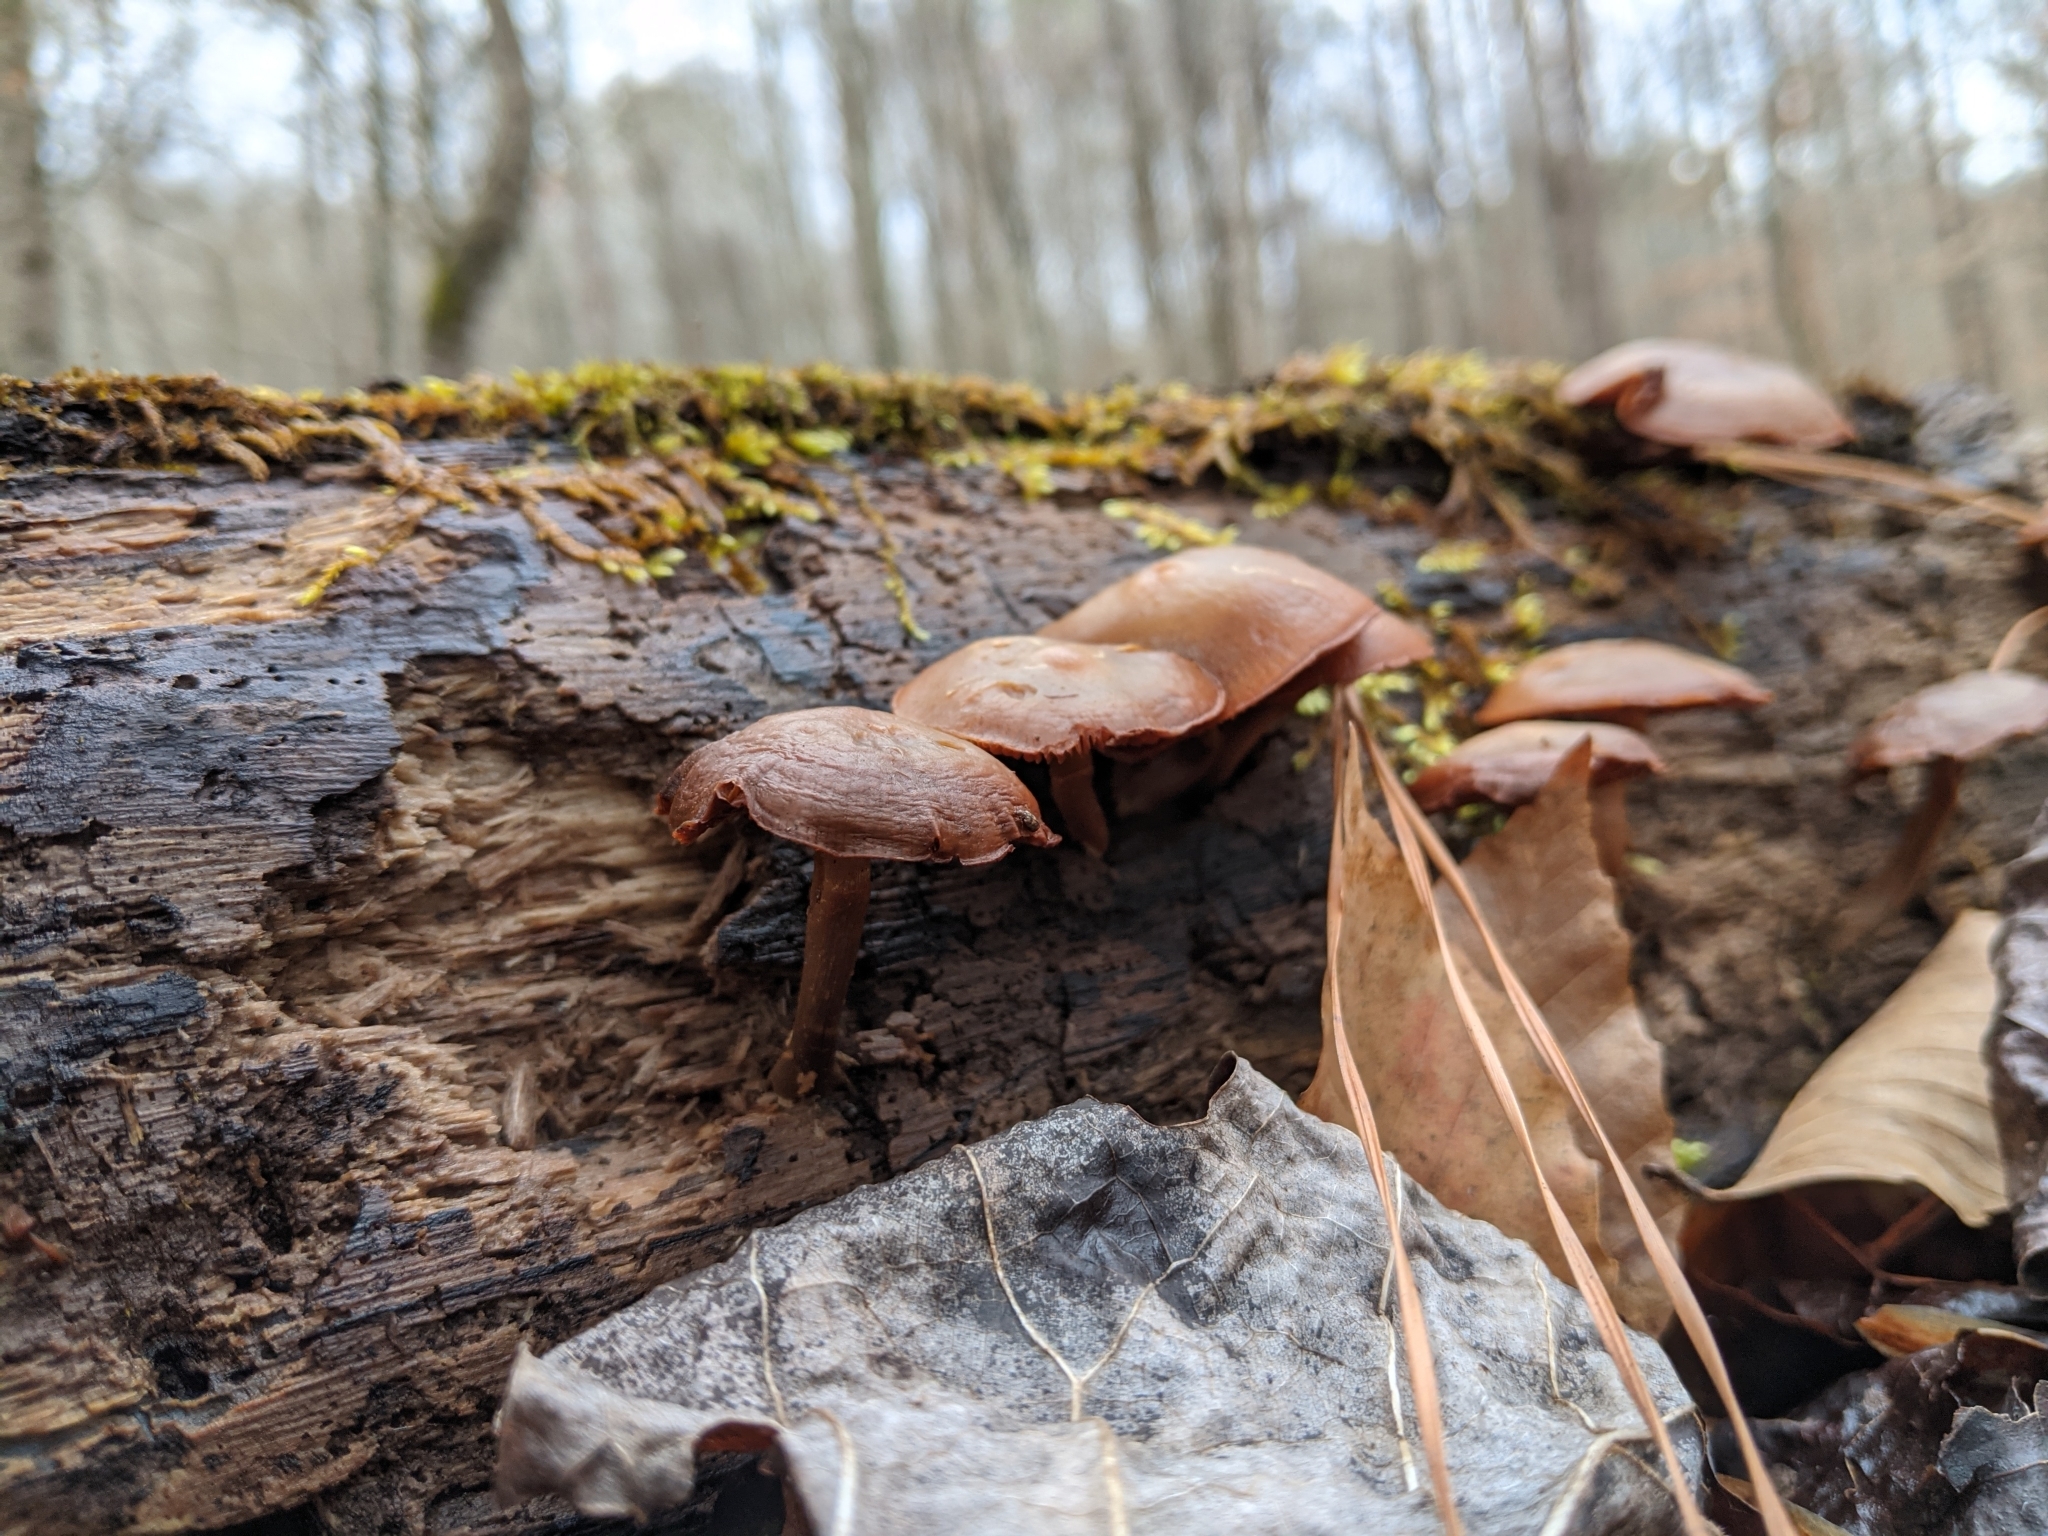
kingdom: Fungi
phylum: Basidiomycota
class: Agaricomycetes
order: Agaricales
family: Strophariaceae
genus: Hypholoma
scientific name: Hypholoma lateritium
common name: Brick caps
